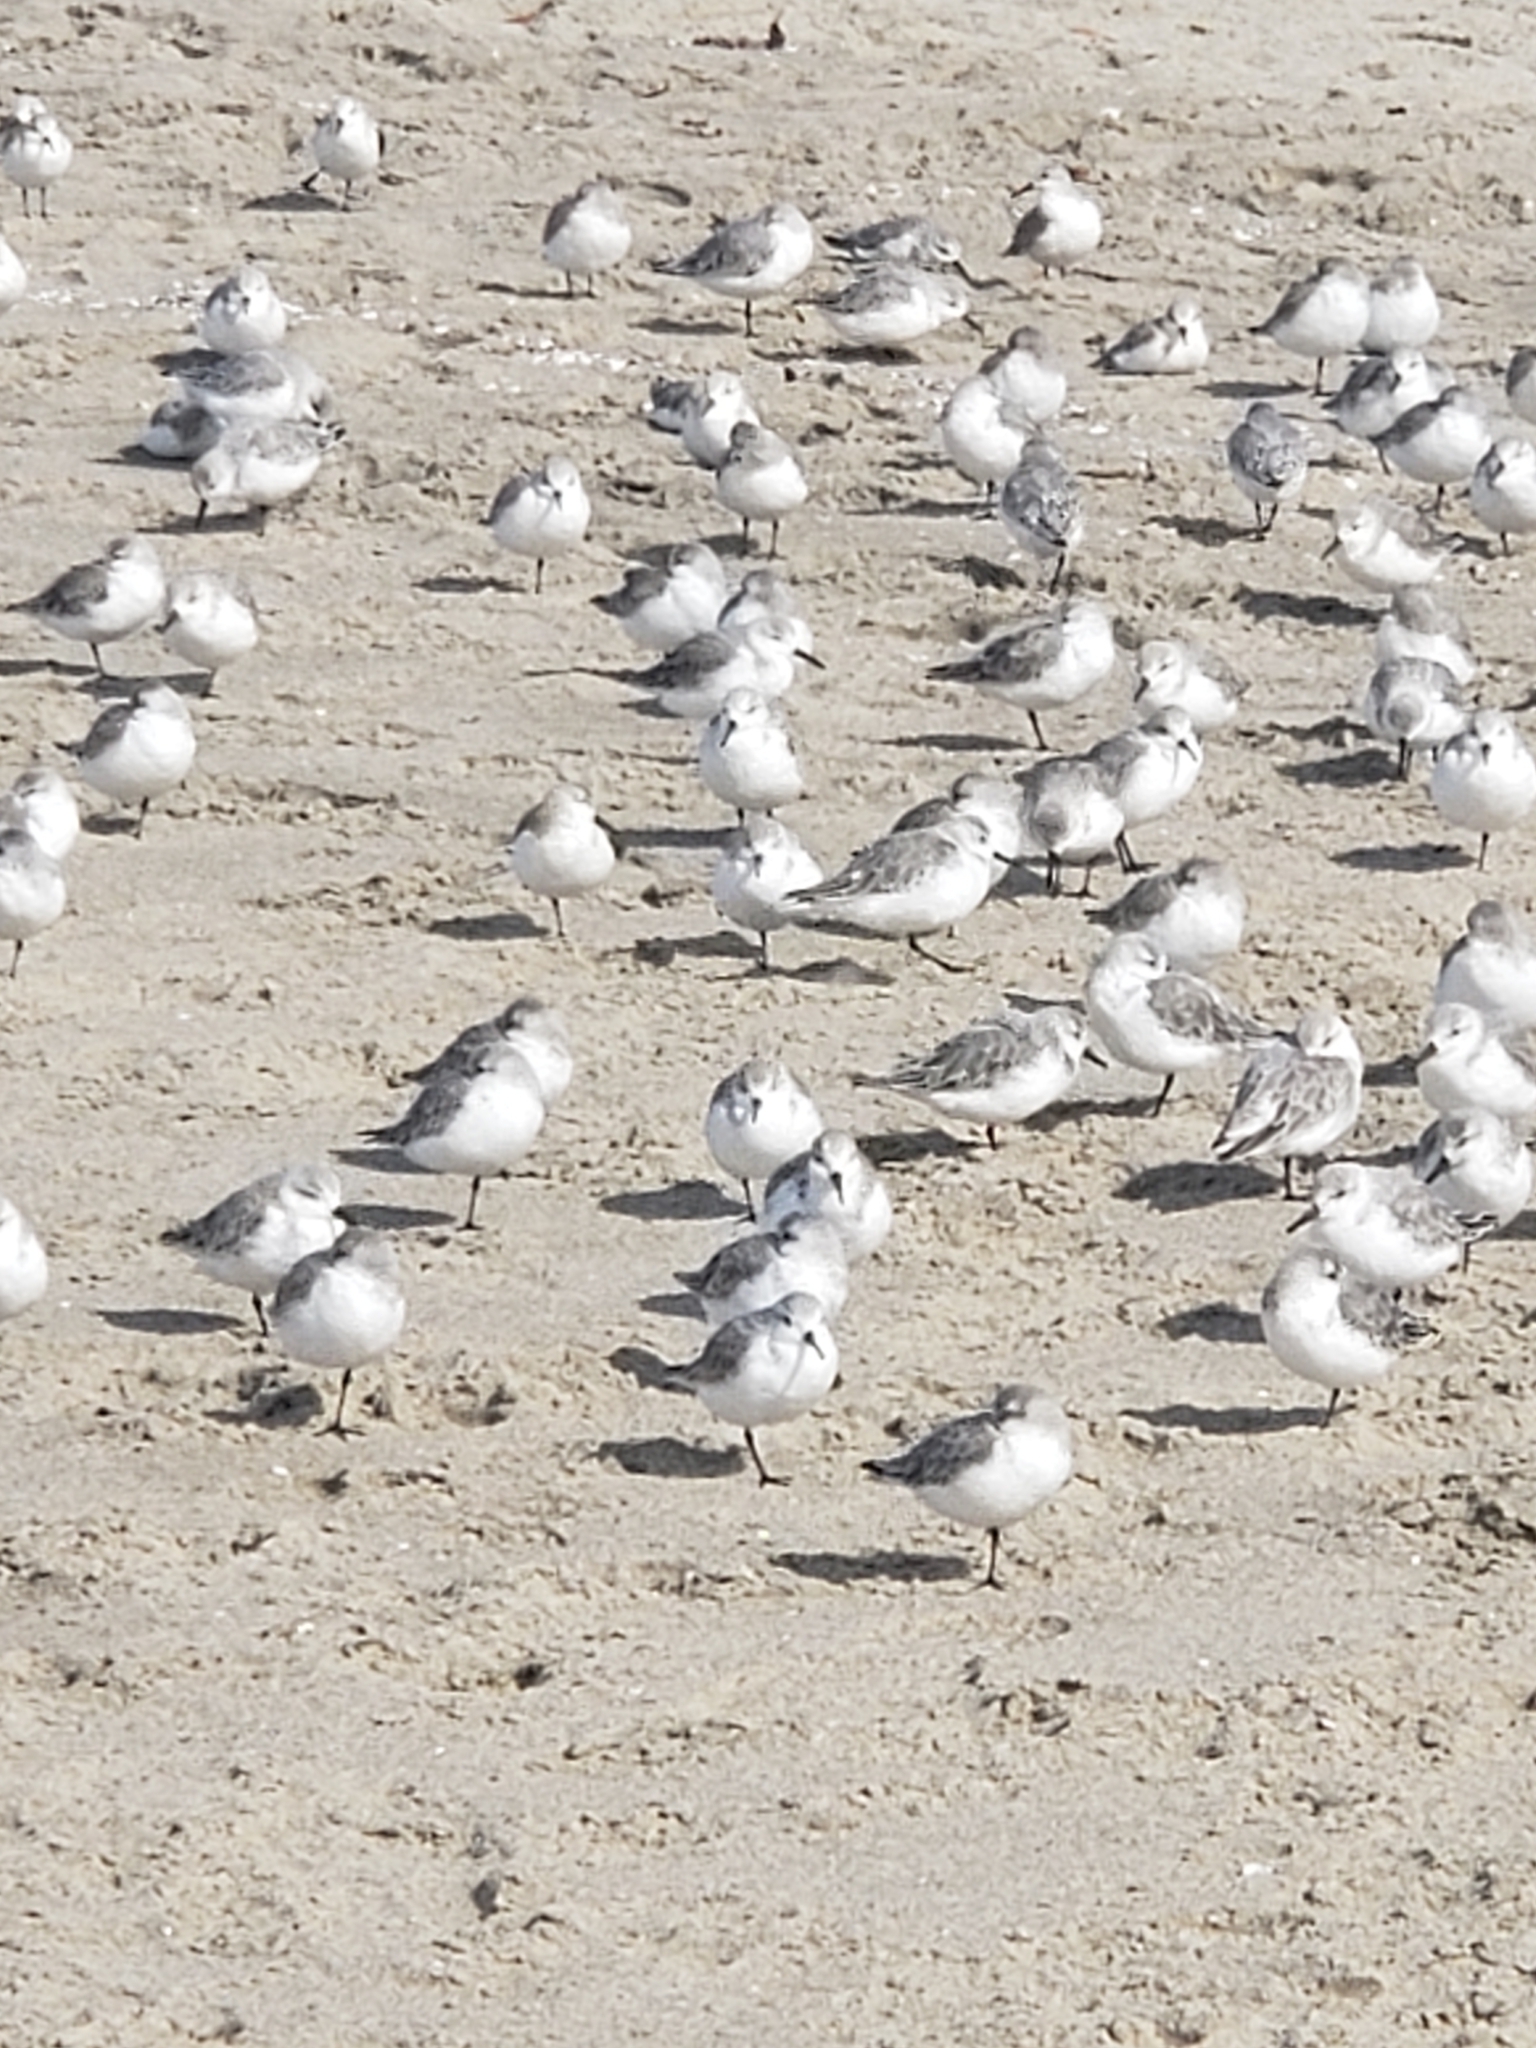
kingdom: Animalia
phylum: Chordata
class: Aves
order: Charadriiformes
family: Scolopacidae
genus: Calidris
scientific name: Calidris alba
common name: Sanderling
